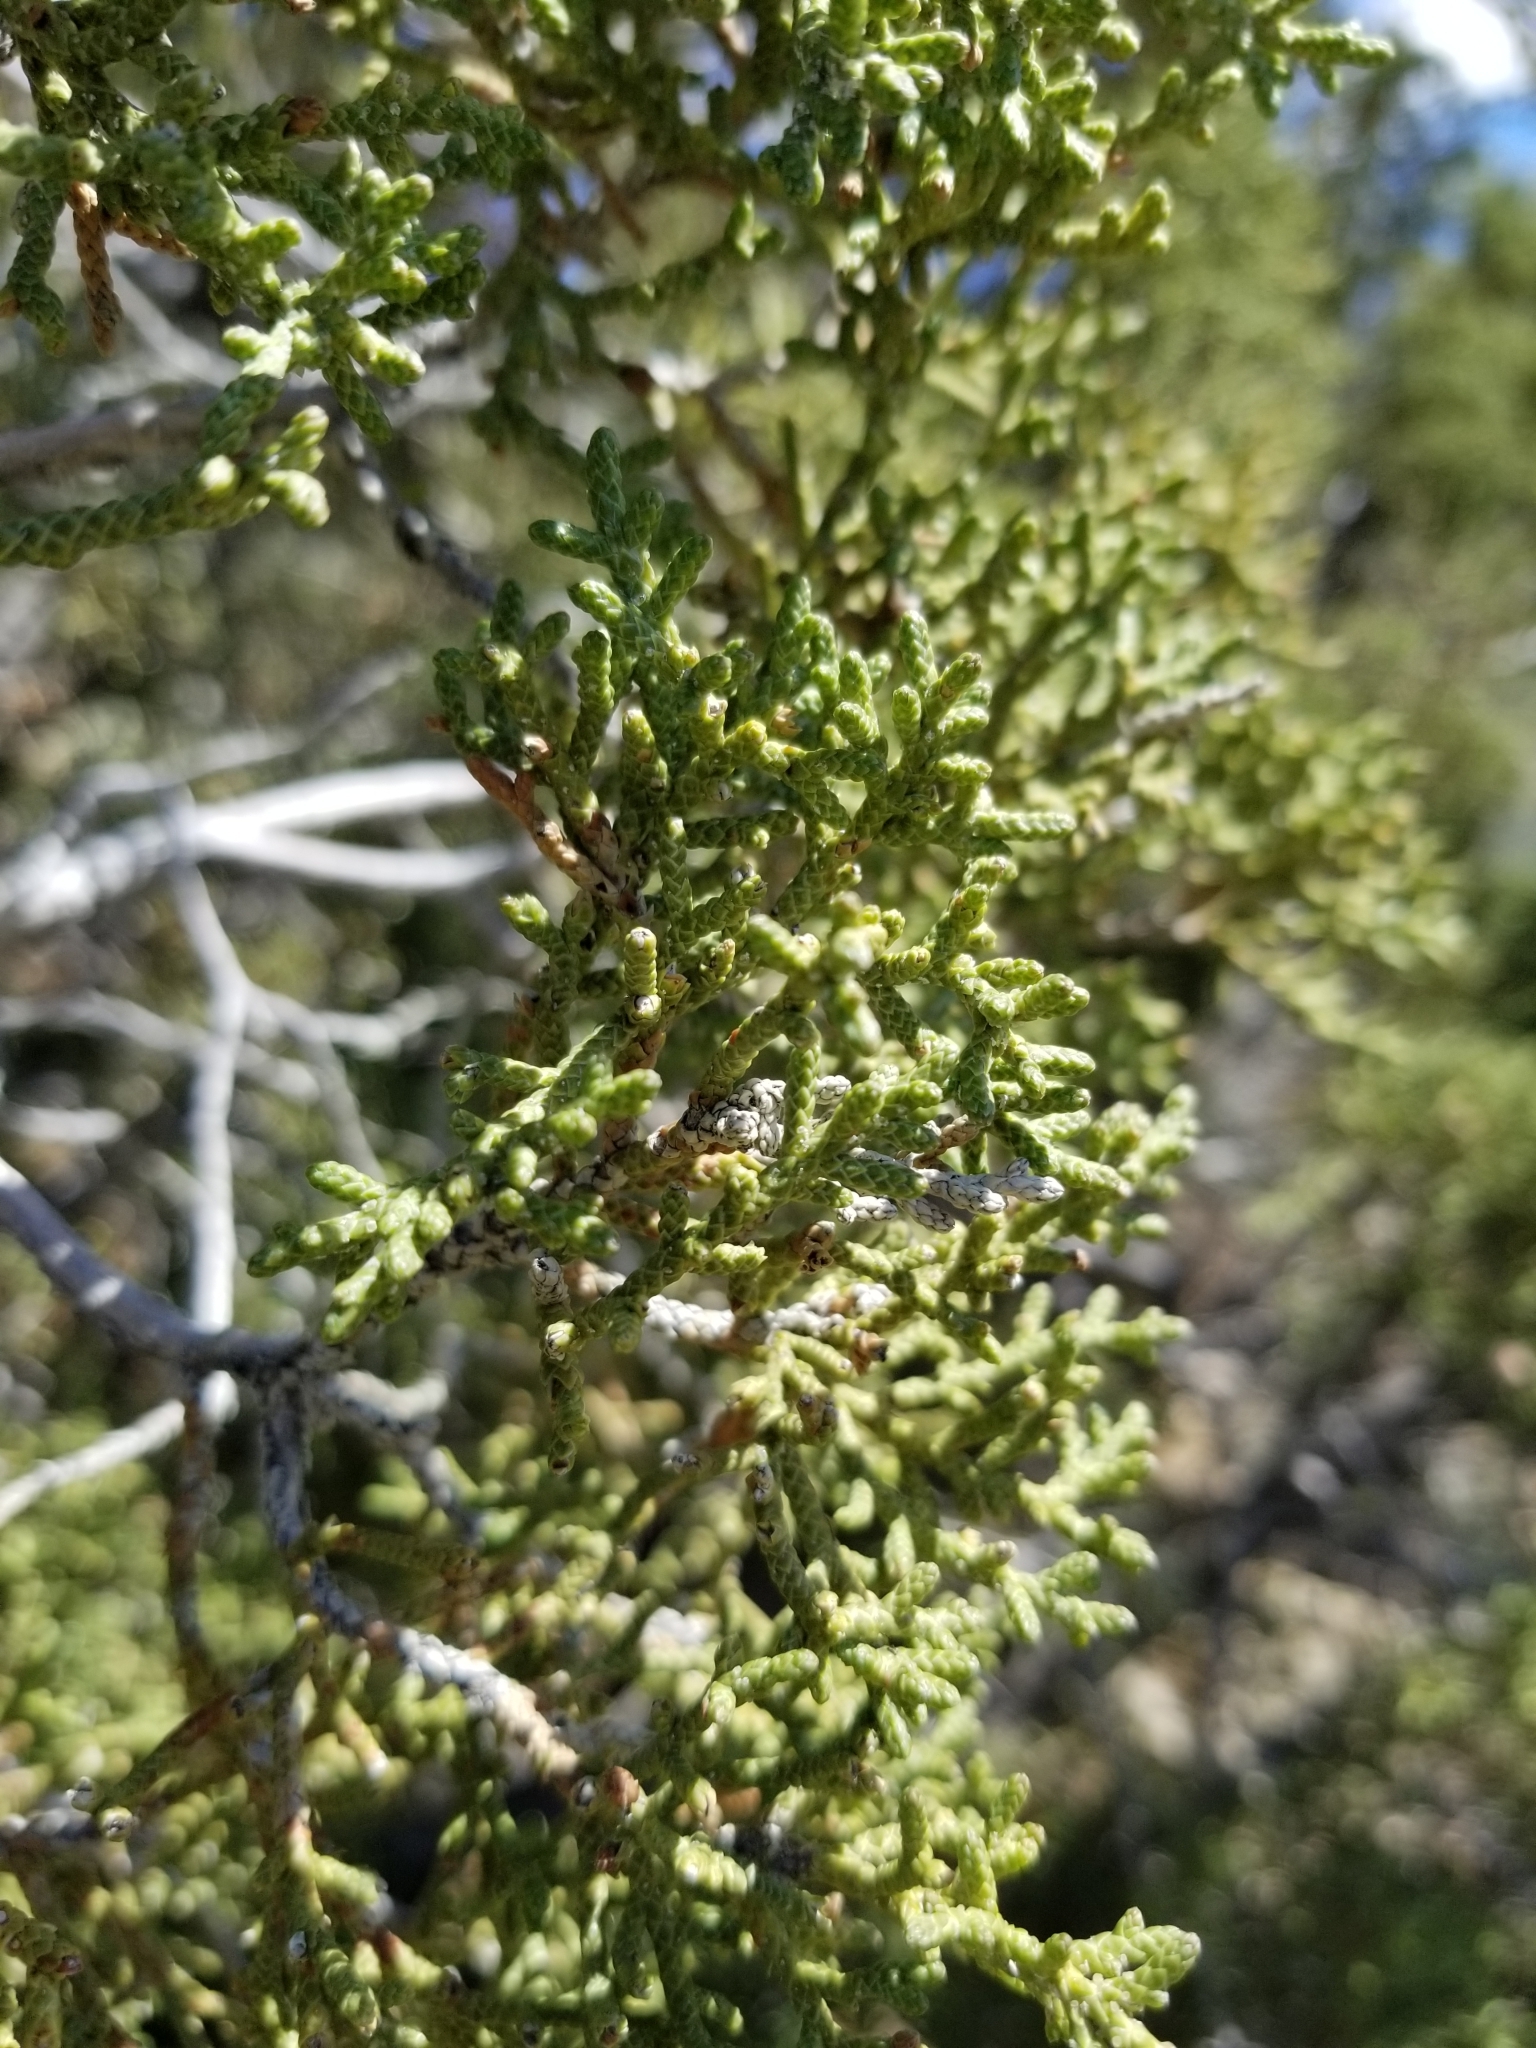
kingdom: Plantae
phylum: Tracheophyta
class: Pinopsida
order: Pinales
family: Cupressaceae
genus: Juniperus
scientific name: Juniperus californica
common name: California juniper
